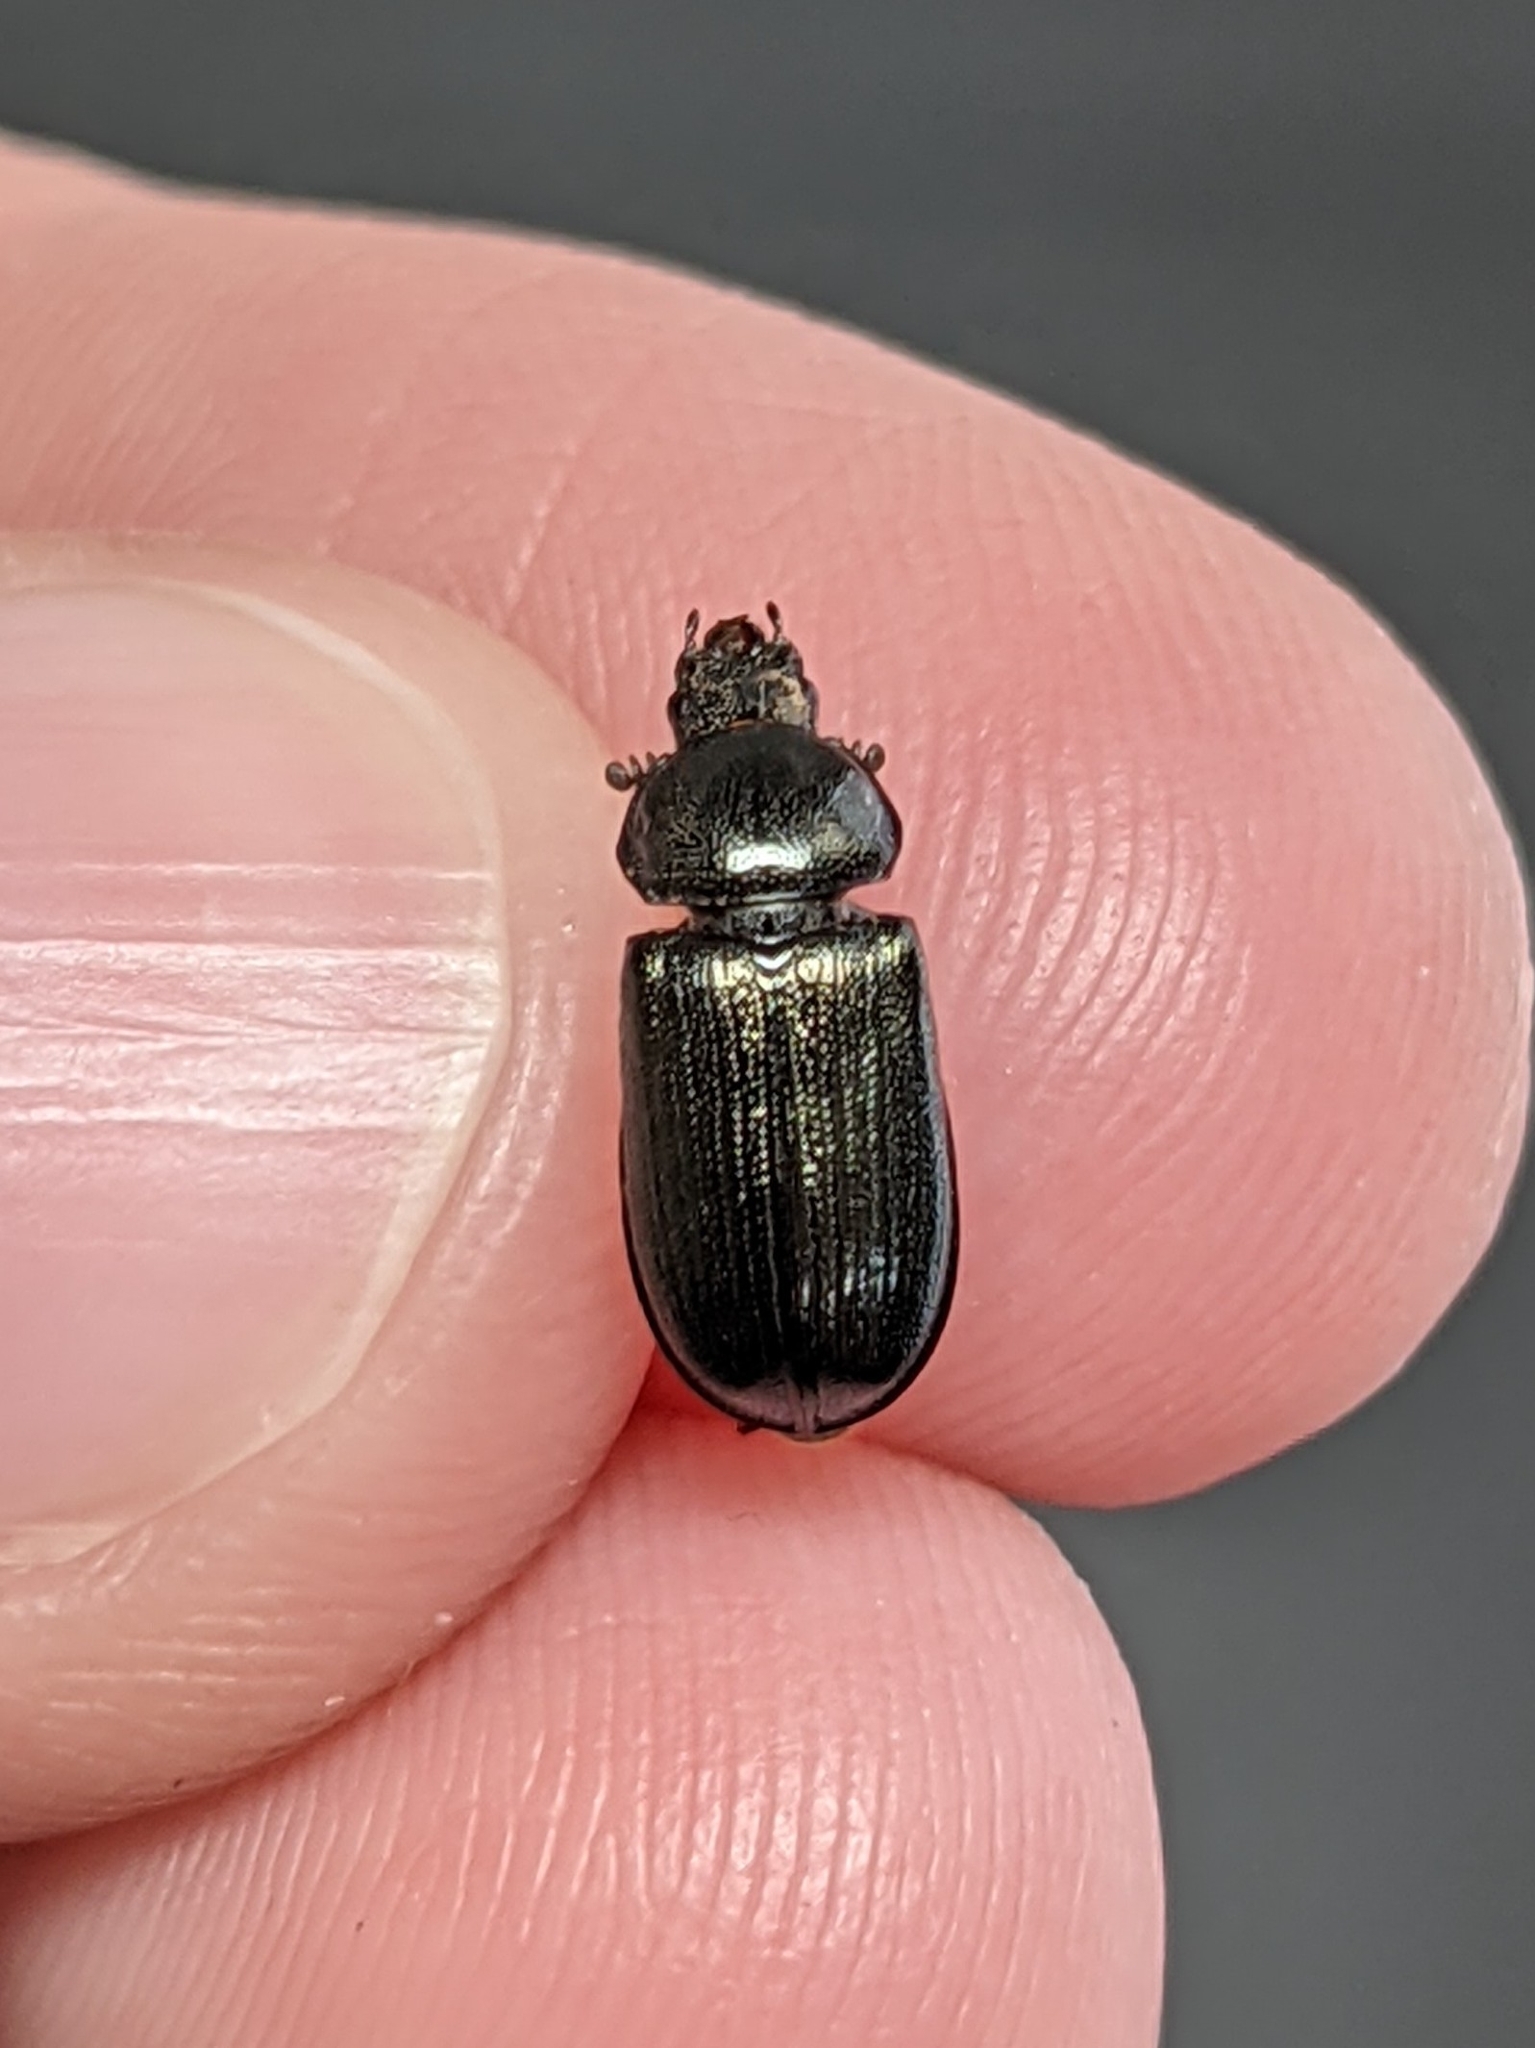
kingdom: Animalia
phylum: Arthropoda
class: Insecta
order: Coleoptera
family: Lucanidae
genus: Platycerus
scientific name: Platycerus quercus
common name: Oak stag beetle
